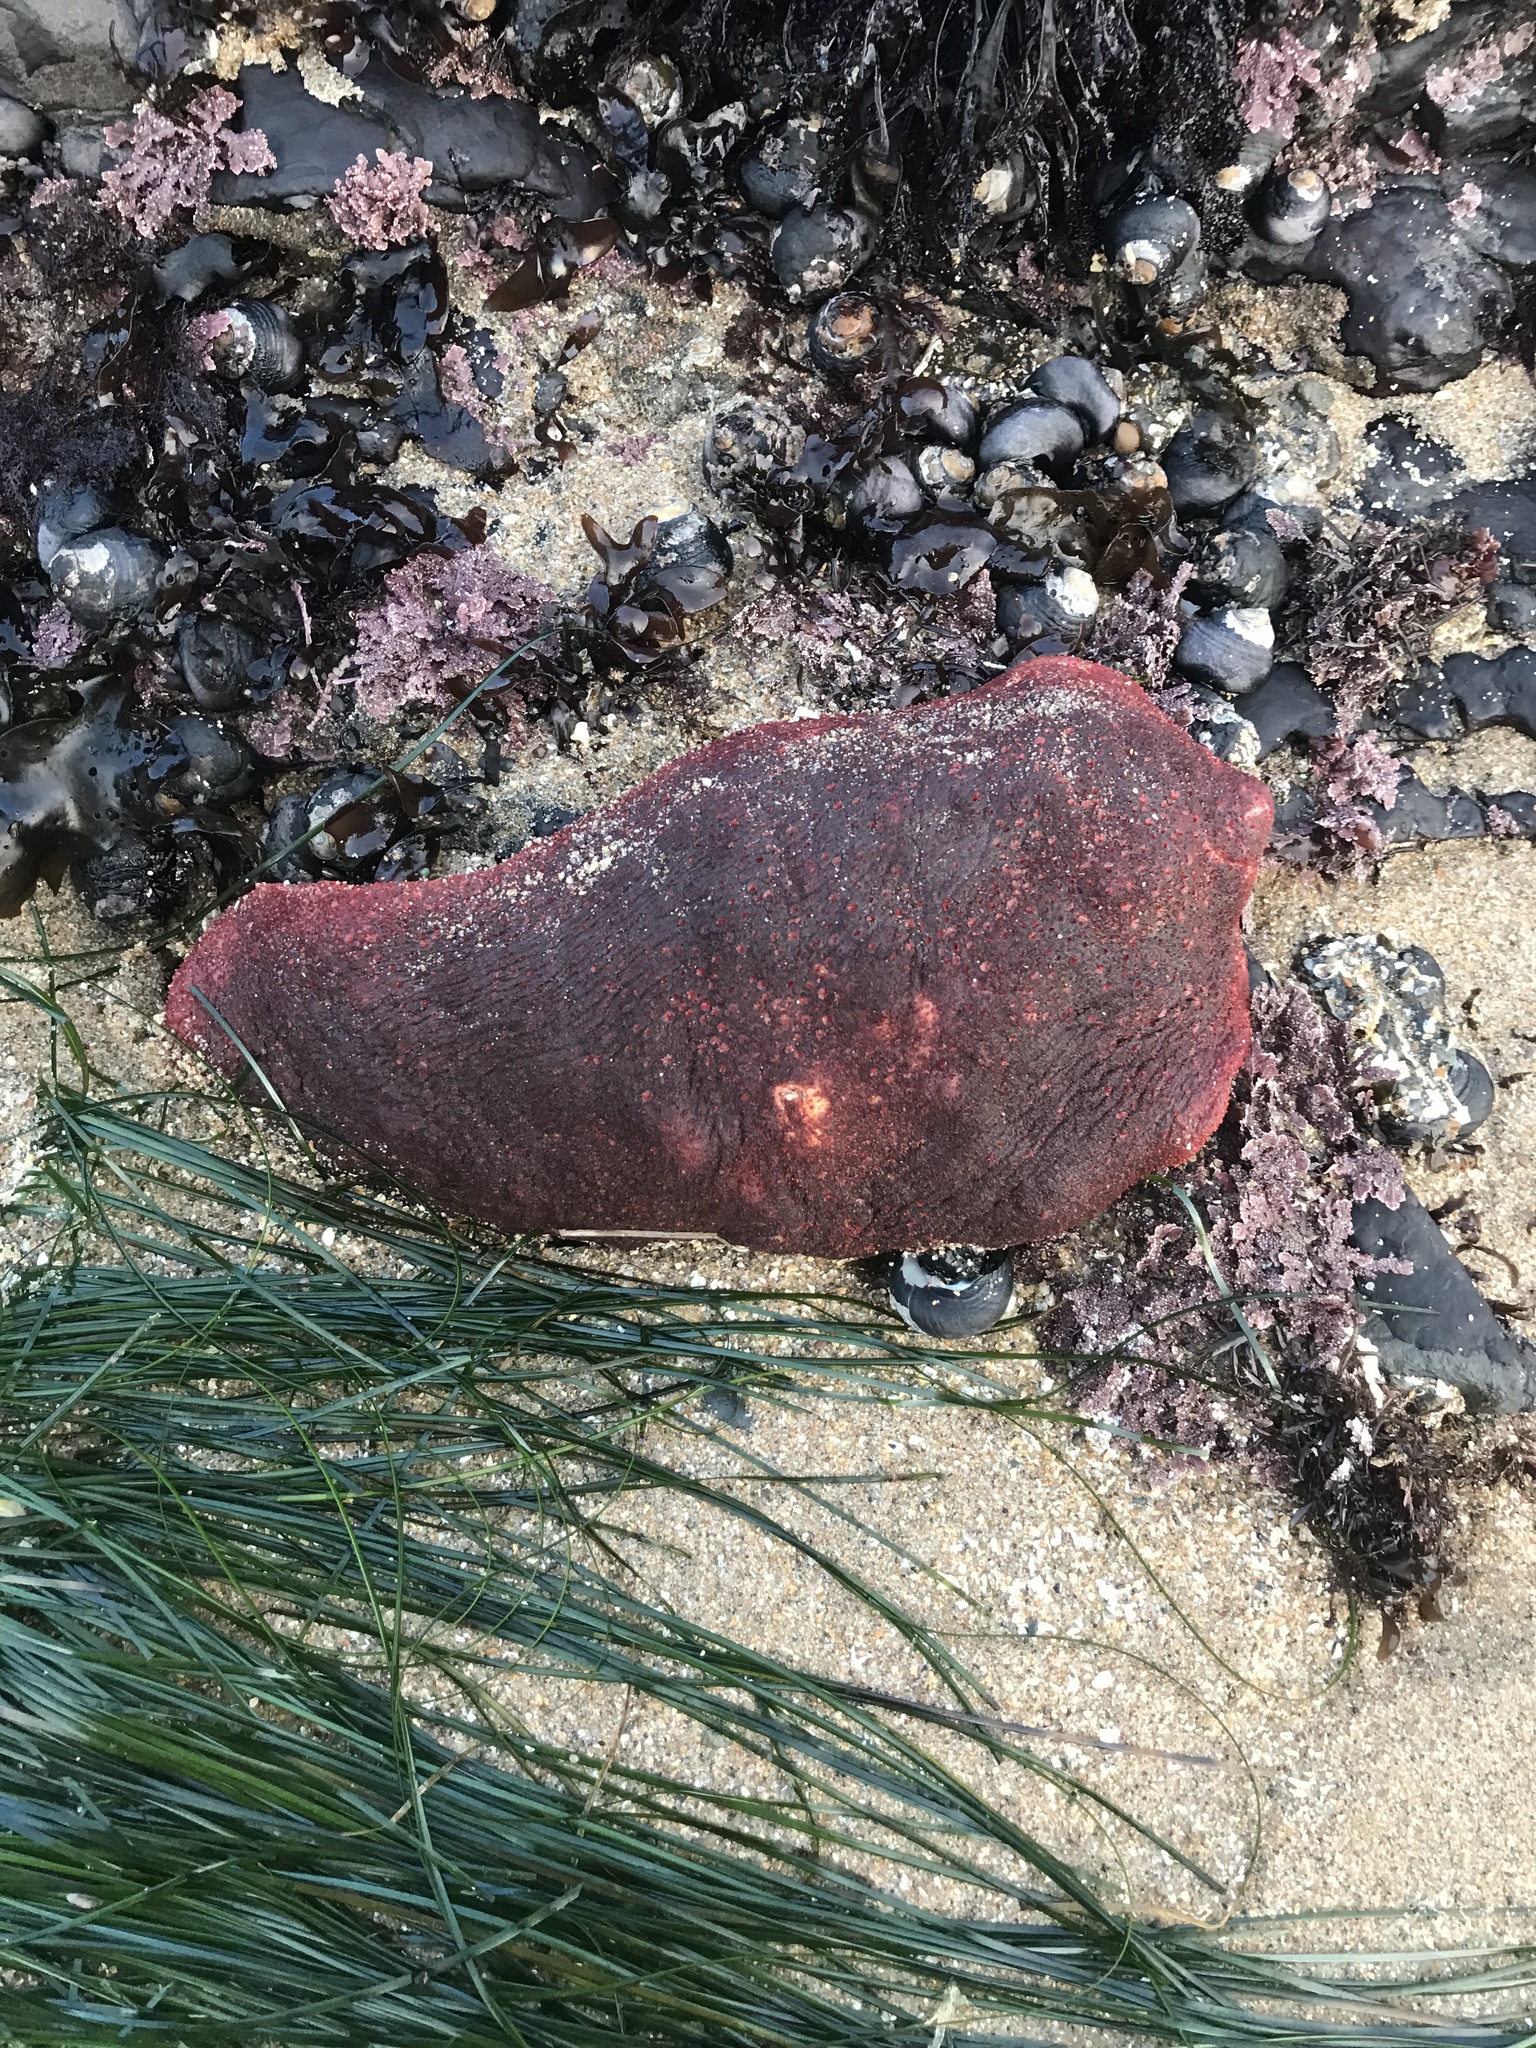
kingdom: Animalia
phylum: Mollusca
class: Polyplacophora
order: Chitonida
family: Acanthochitonidae
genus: Cryptochiton
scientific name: Cryptochiton stelleri
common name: Giant pacific chiton
